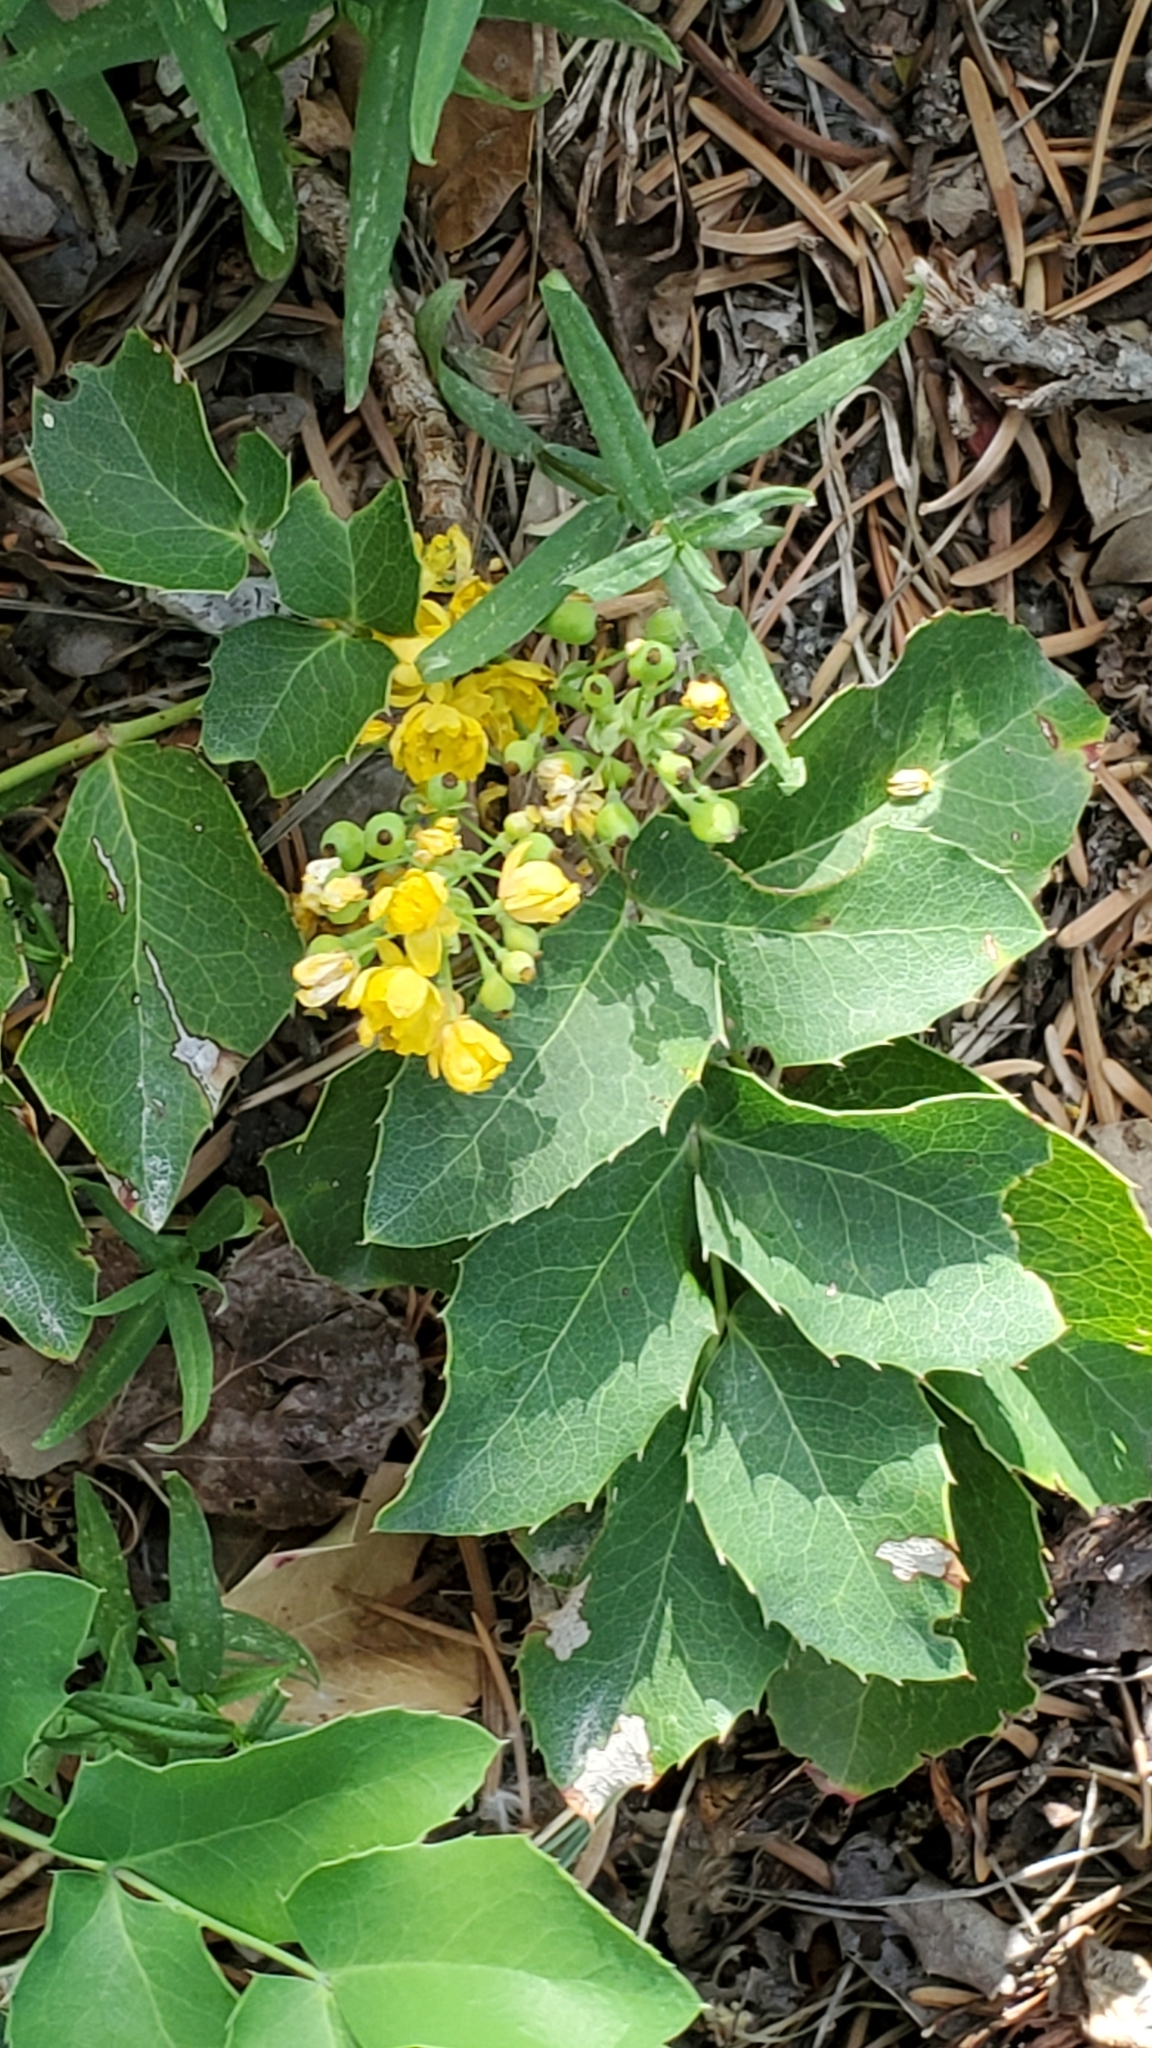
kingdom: Plantae
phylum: Tracheophyta
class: Magnoliopsida
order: Ranunculales
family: Berberidaceae
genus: Mahonia
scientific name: Mahonia repens
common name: Creeping oregon-grape
